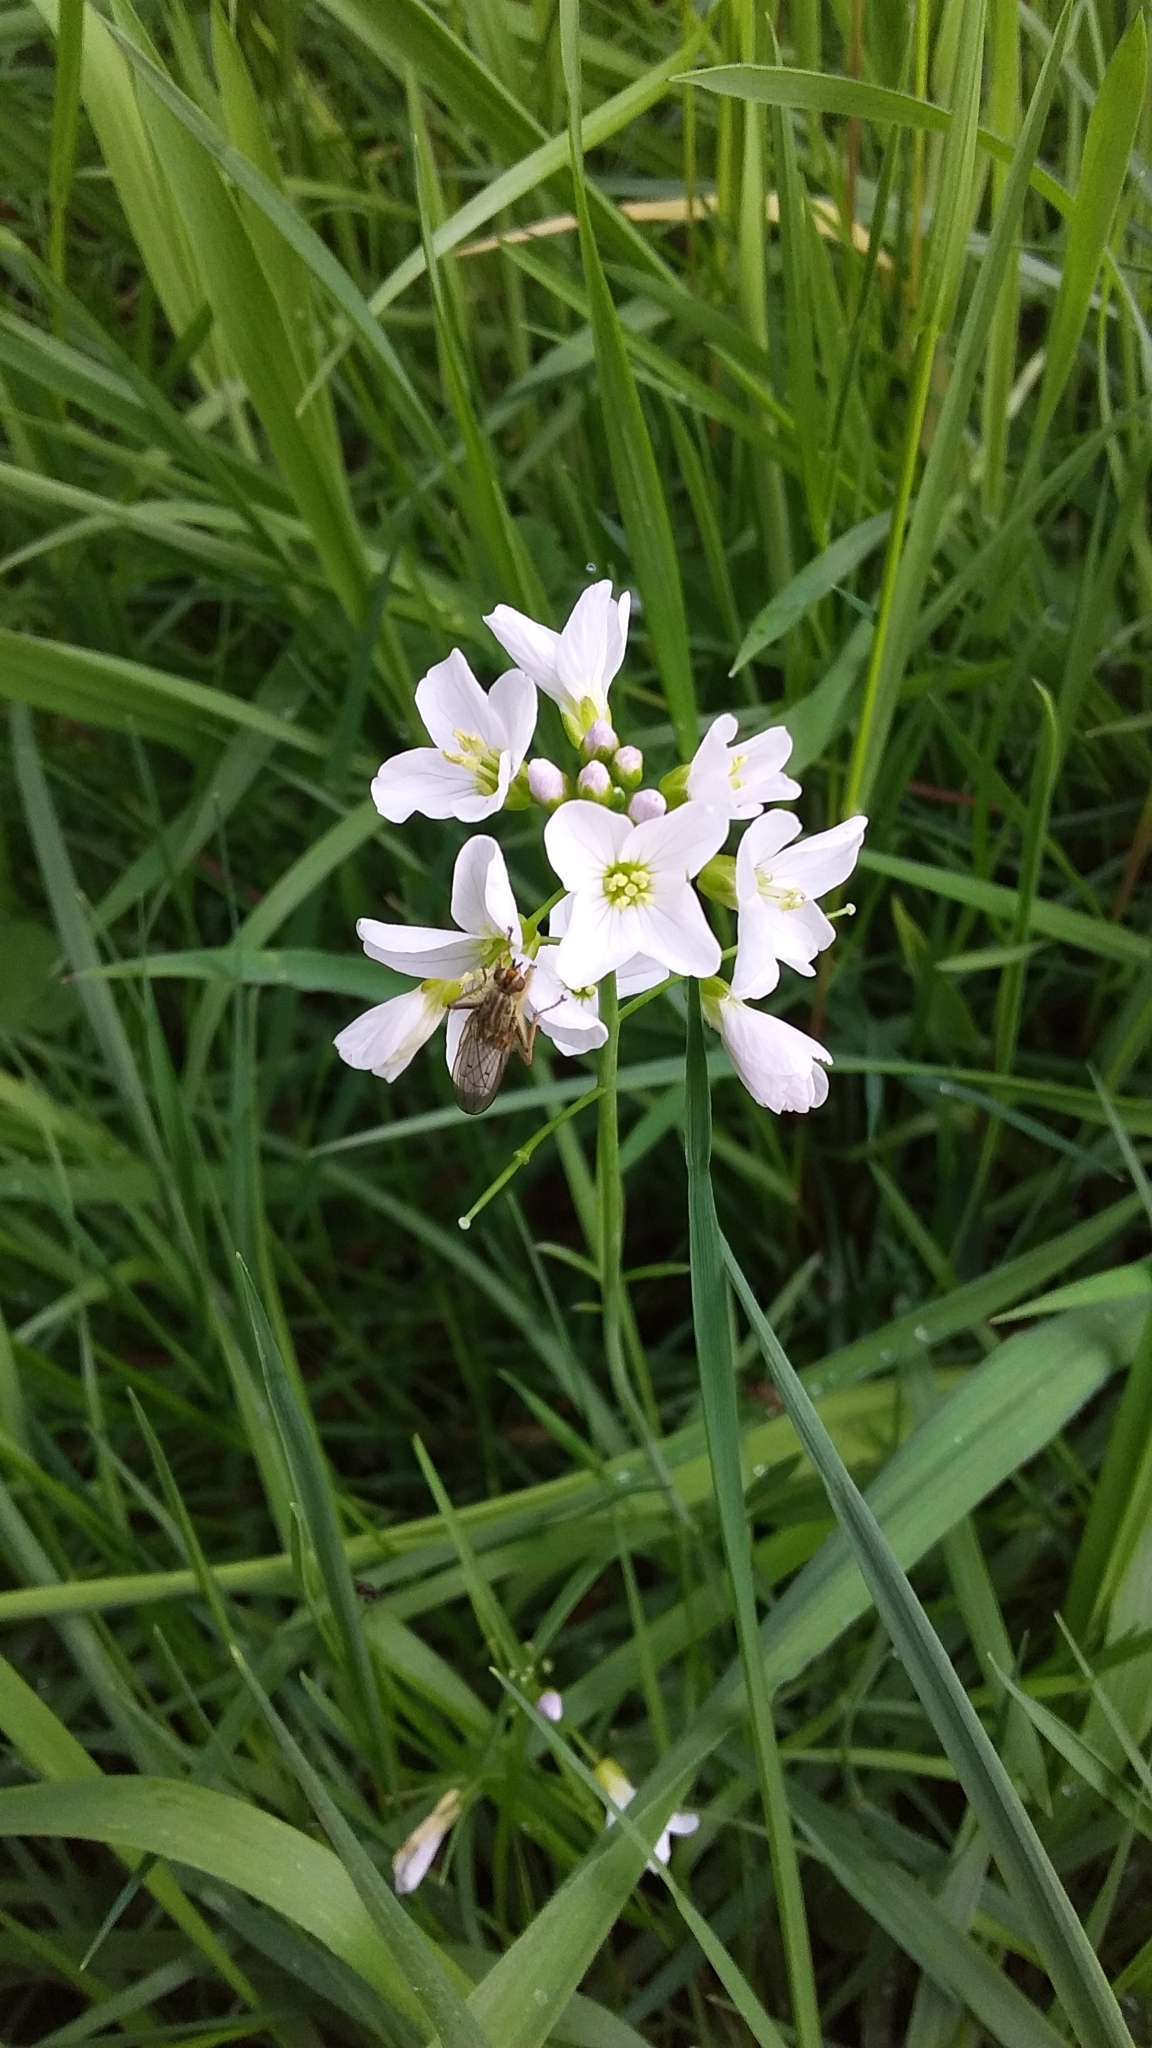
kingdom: Plantae
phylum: Tracheophyta
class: Magnoliopsida
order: Brassicales
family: Brassicaceae
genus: Cardamine
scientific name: Cardamine pratensis
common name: Cuckoo flower
